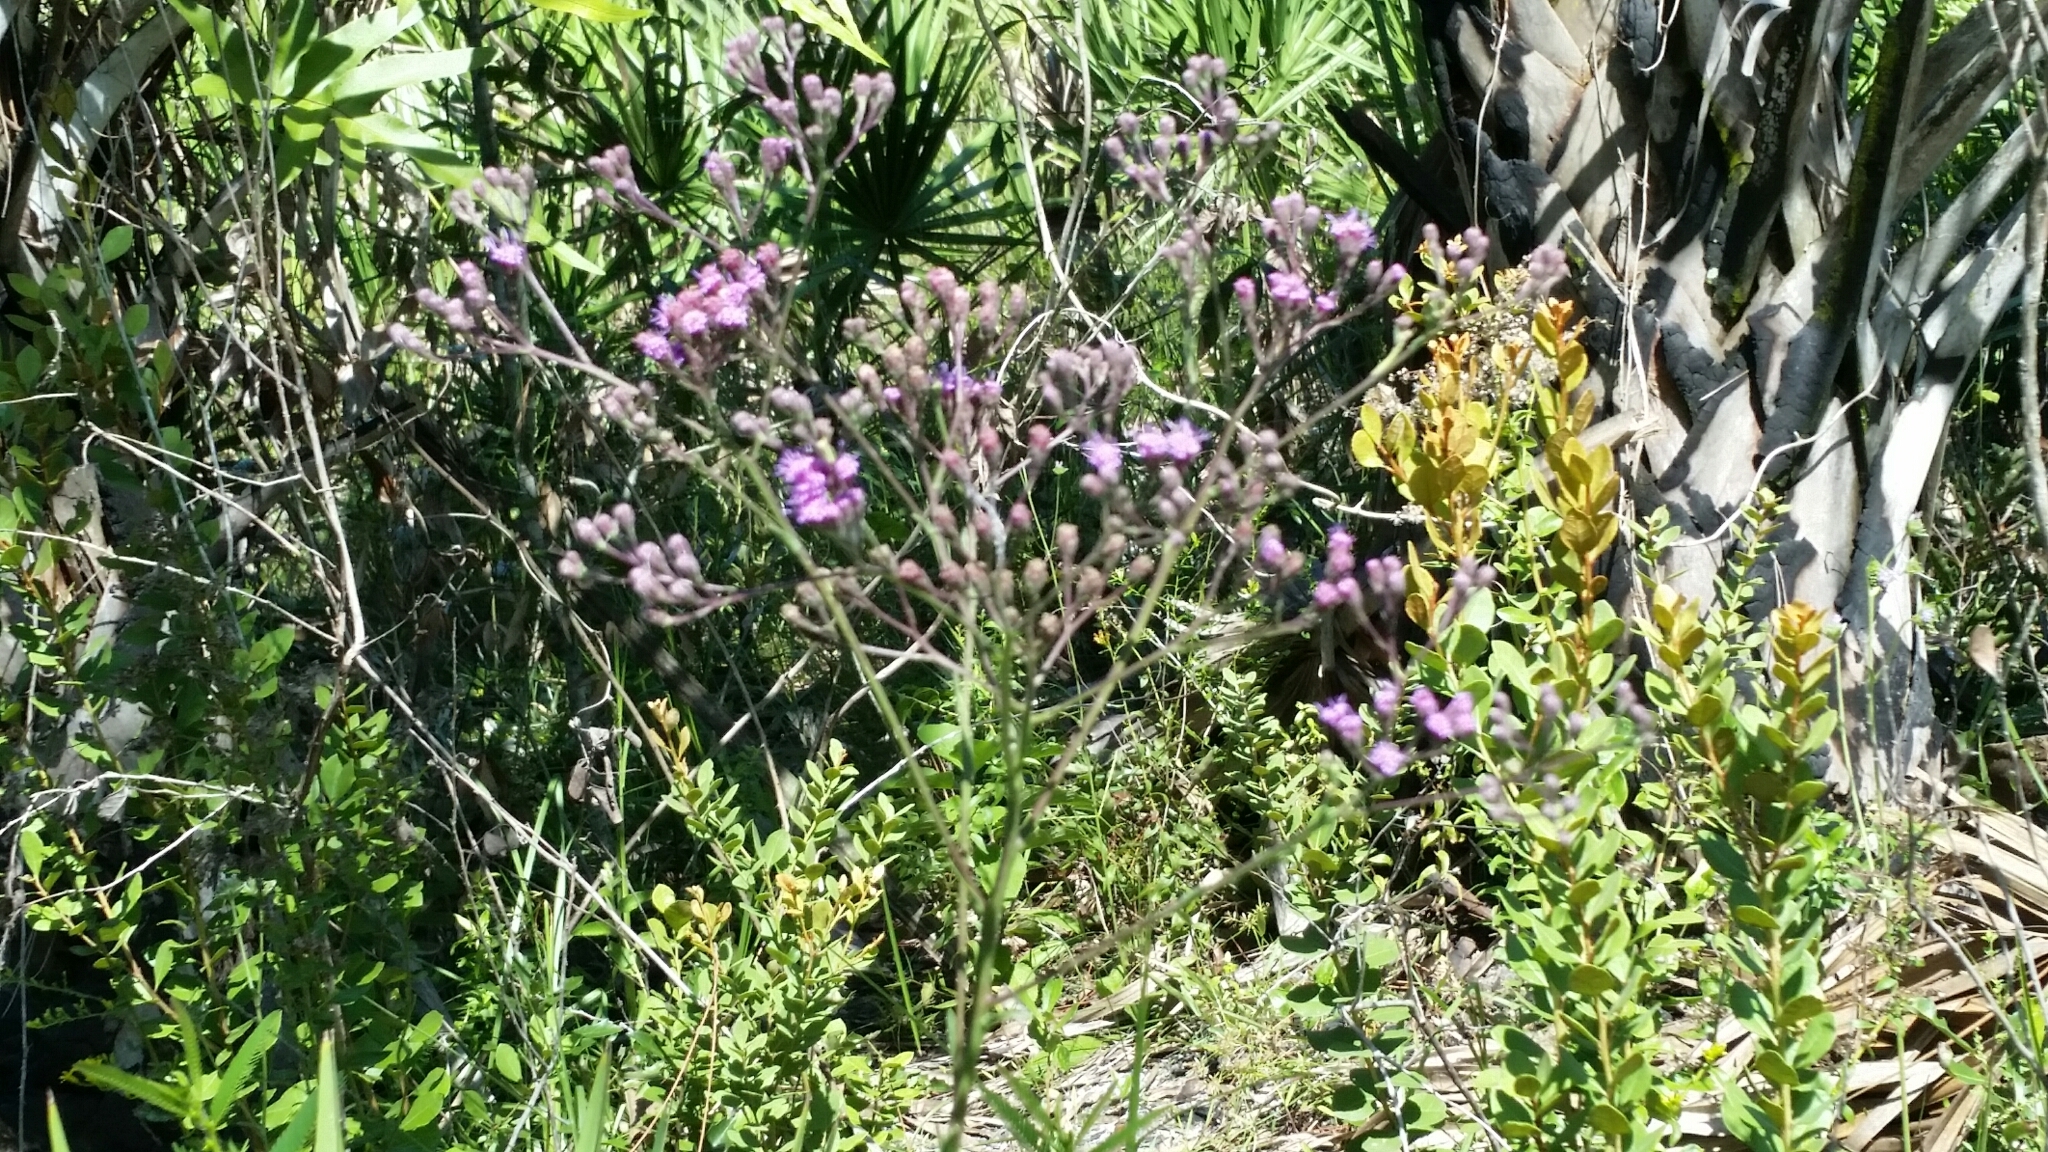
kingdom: Plantae
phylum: Tracheophyta
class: Magnoliopsida
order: Asterales
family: Asteraceae
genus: Carphephorus
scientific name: Carphephorus
